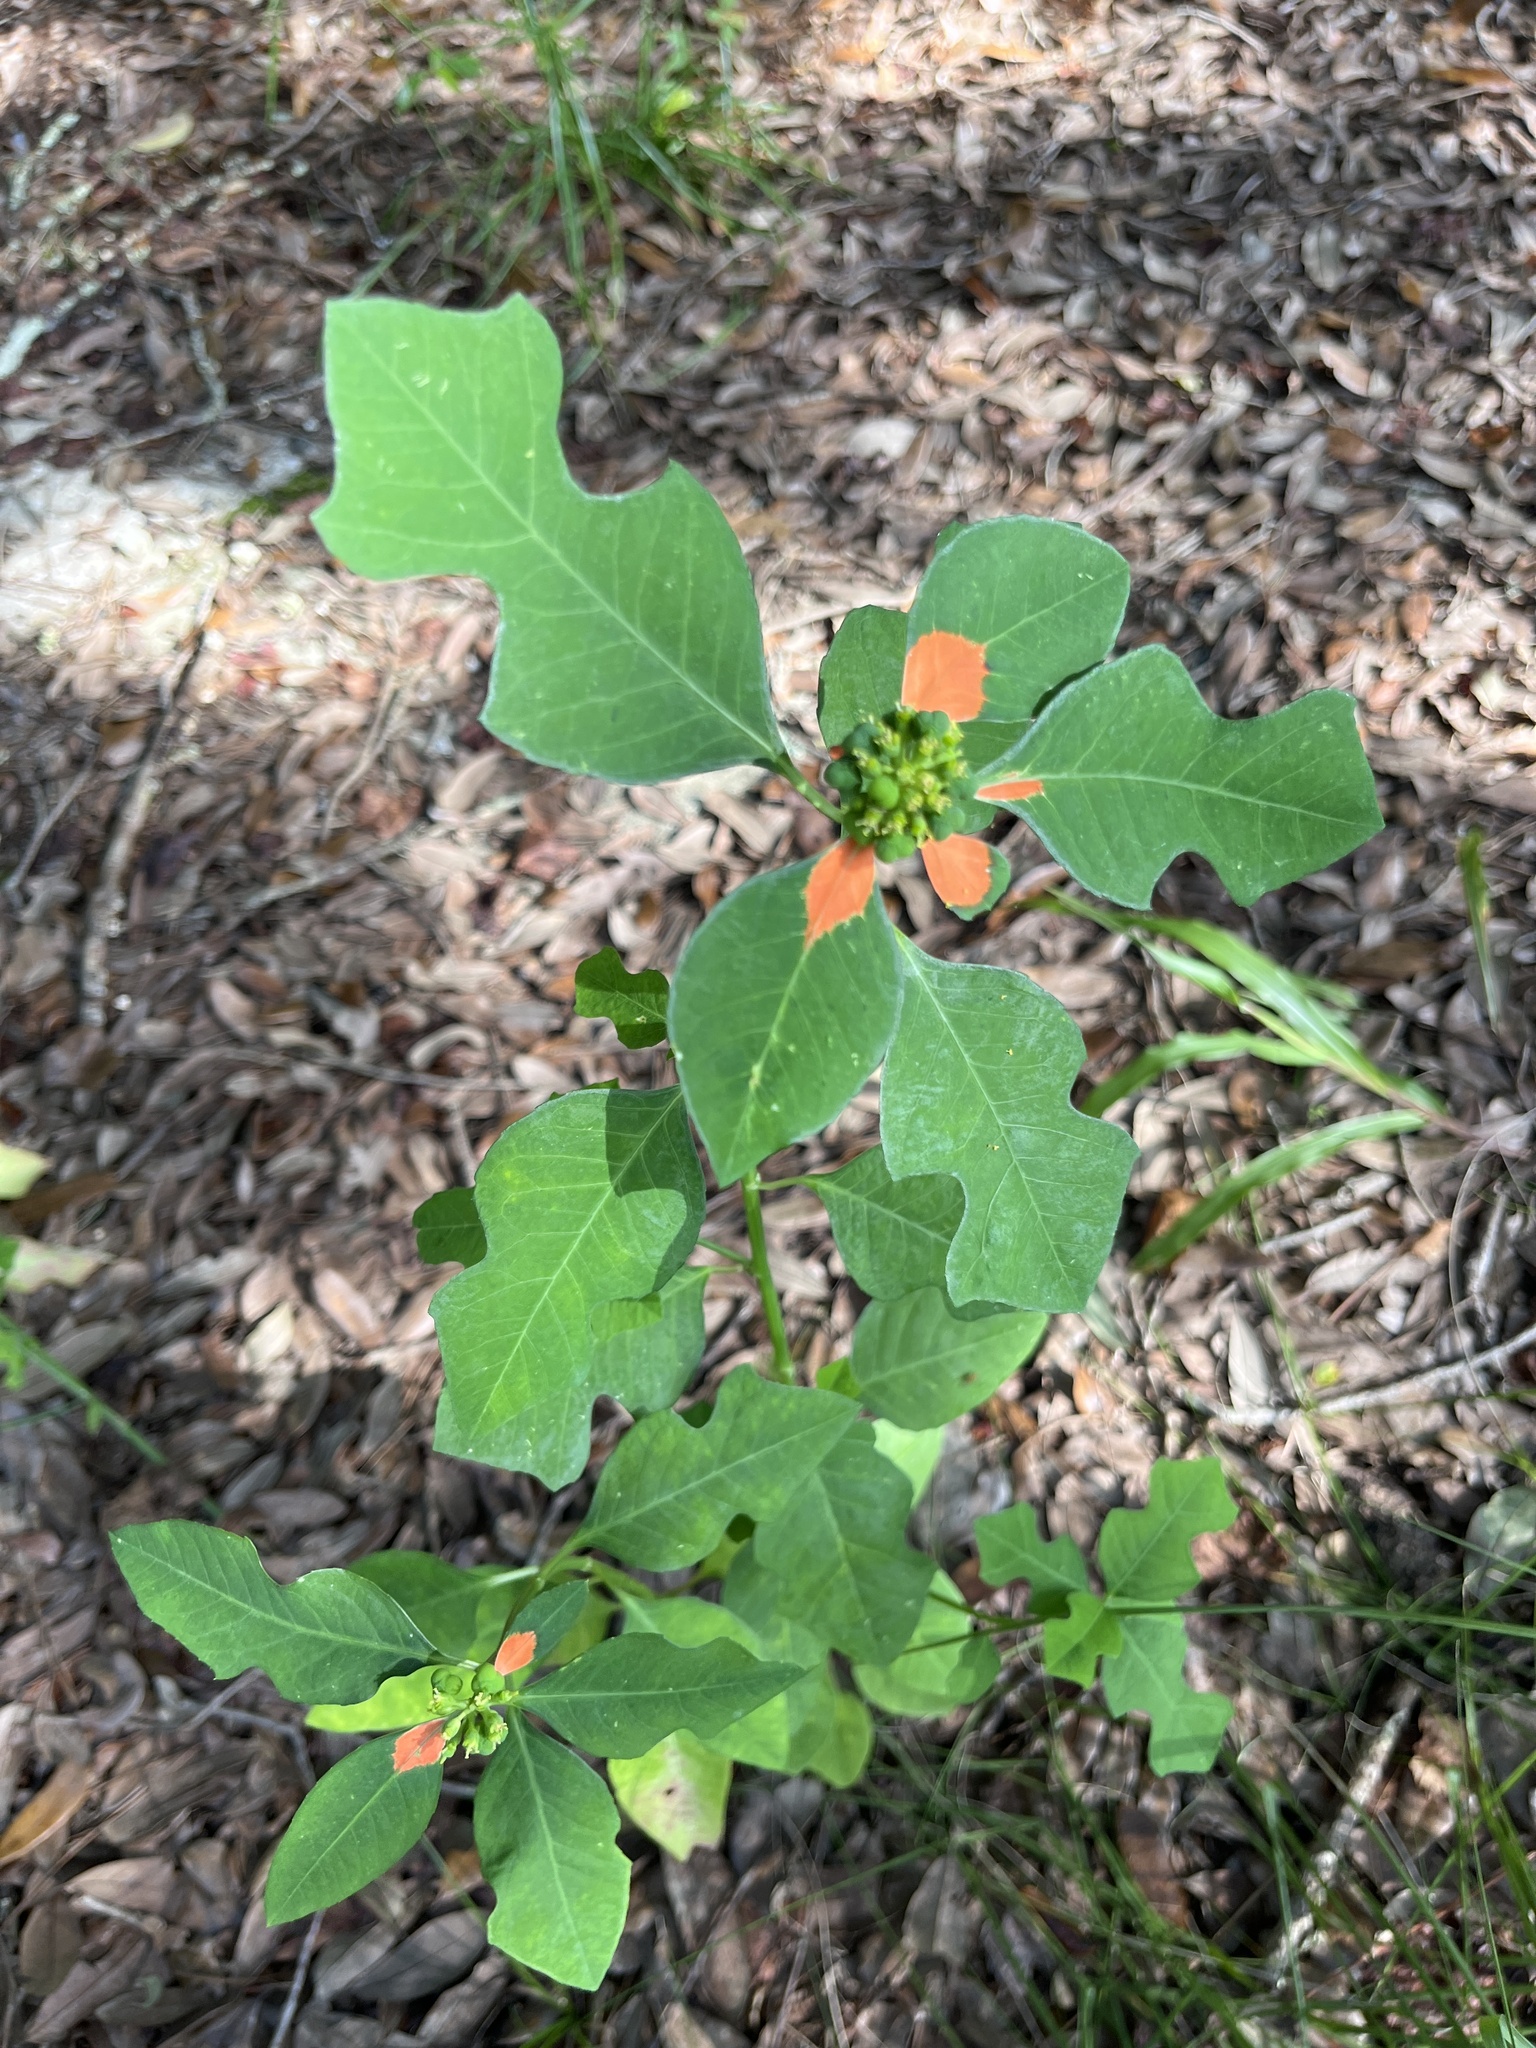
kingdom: Plantae
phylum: Tracheophyta
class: Magnoliopsida
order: Malpighiales
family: Euphorbiaceae
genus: Euphorbia
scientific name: Euphorbia heterophylla
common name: Mexican fireplant
